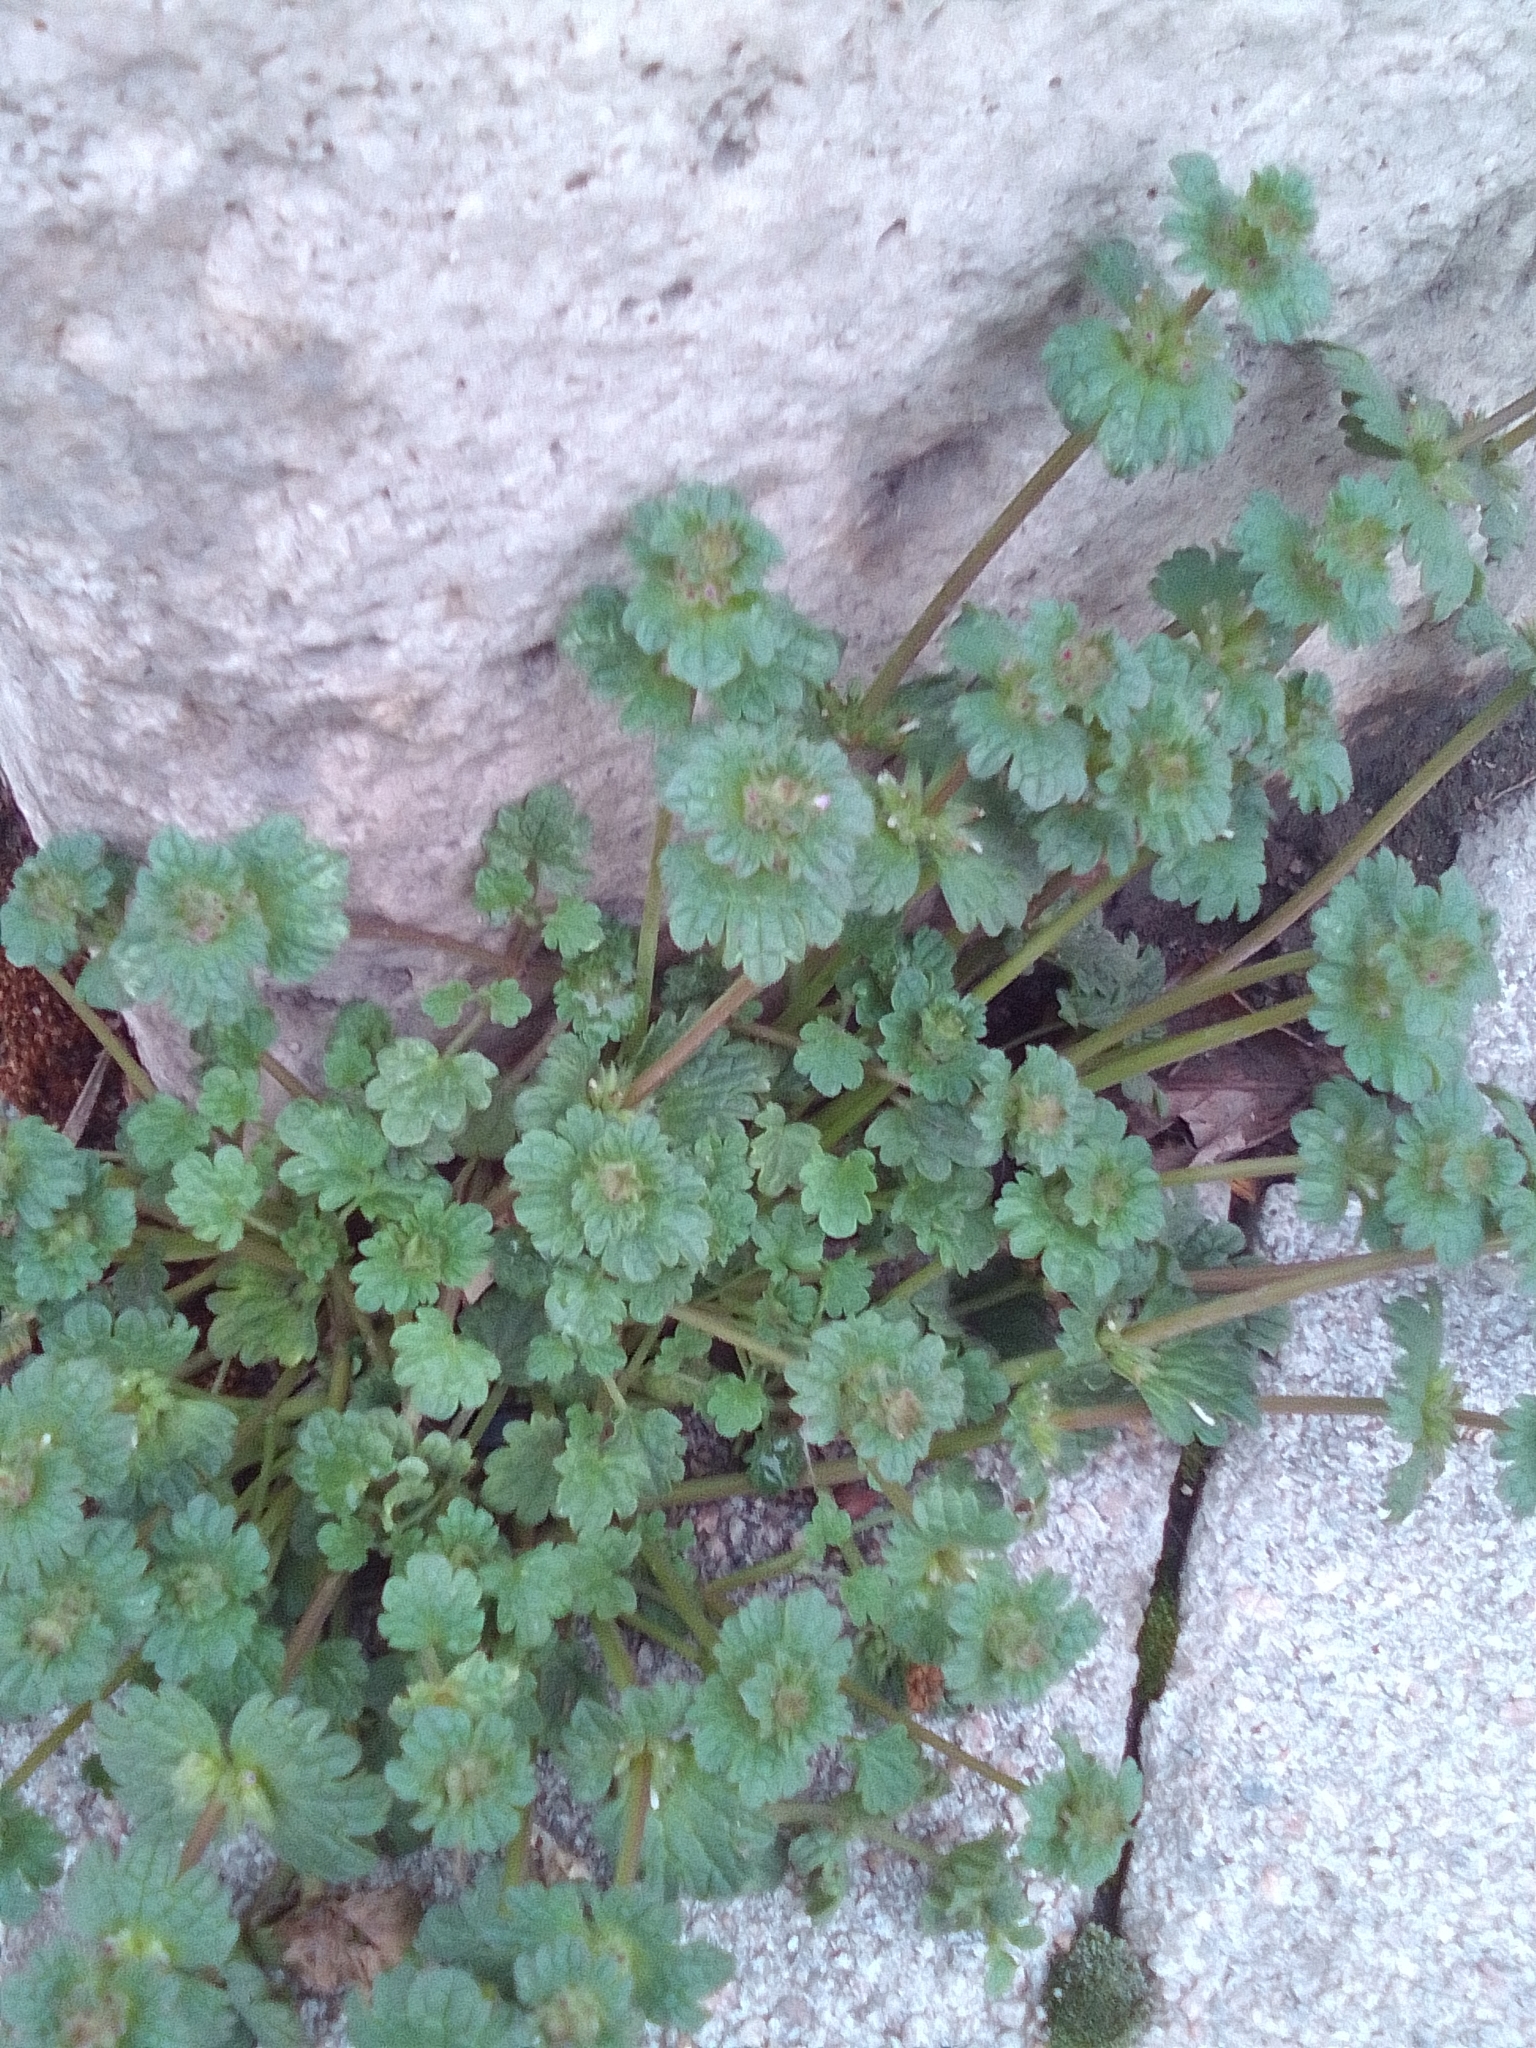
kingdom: Plantae
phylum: Tracheophyta
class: Magnoliopsida
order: Lamiales
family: Lamiaceae
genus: Lamium
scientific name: Lamium amplexicaule
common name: Henbit dead-nettle
